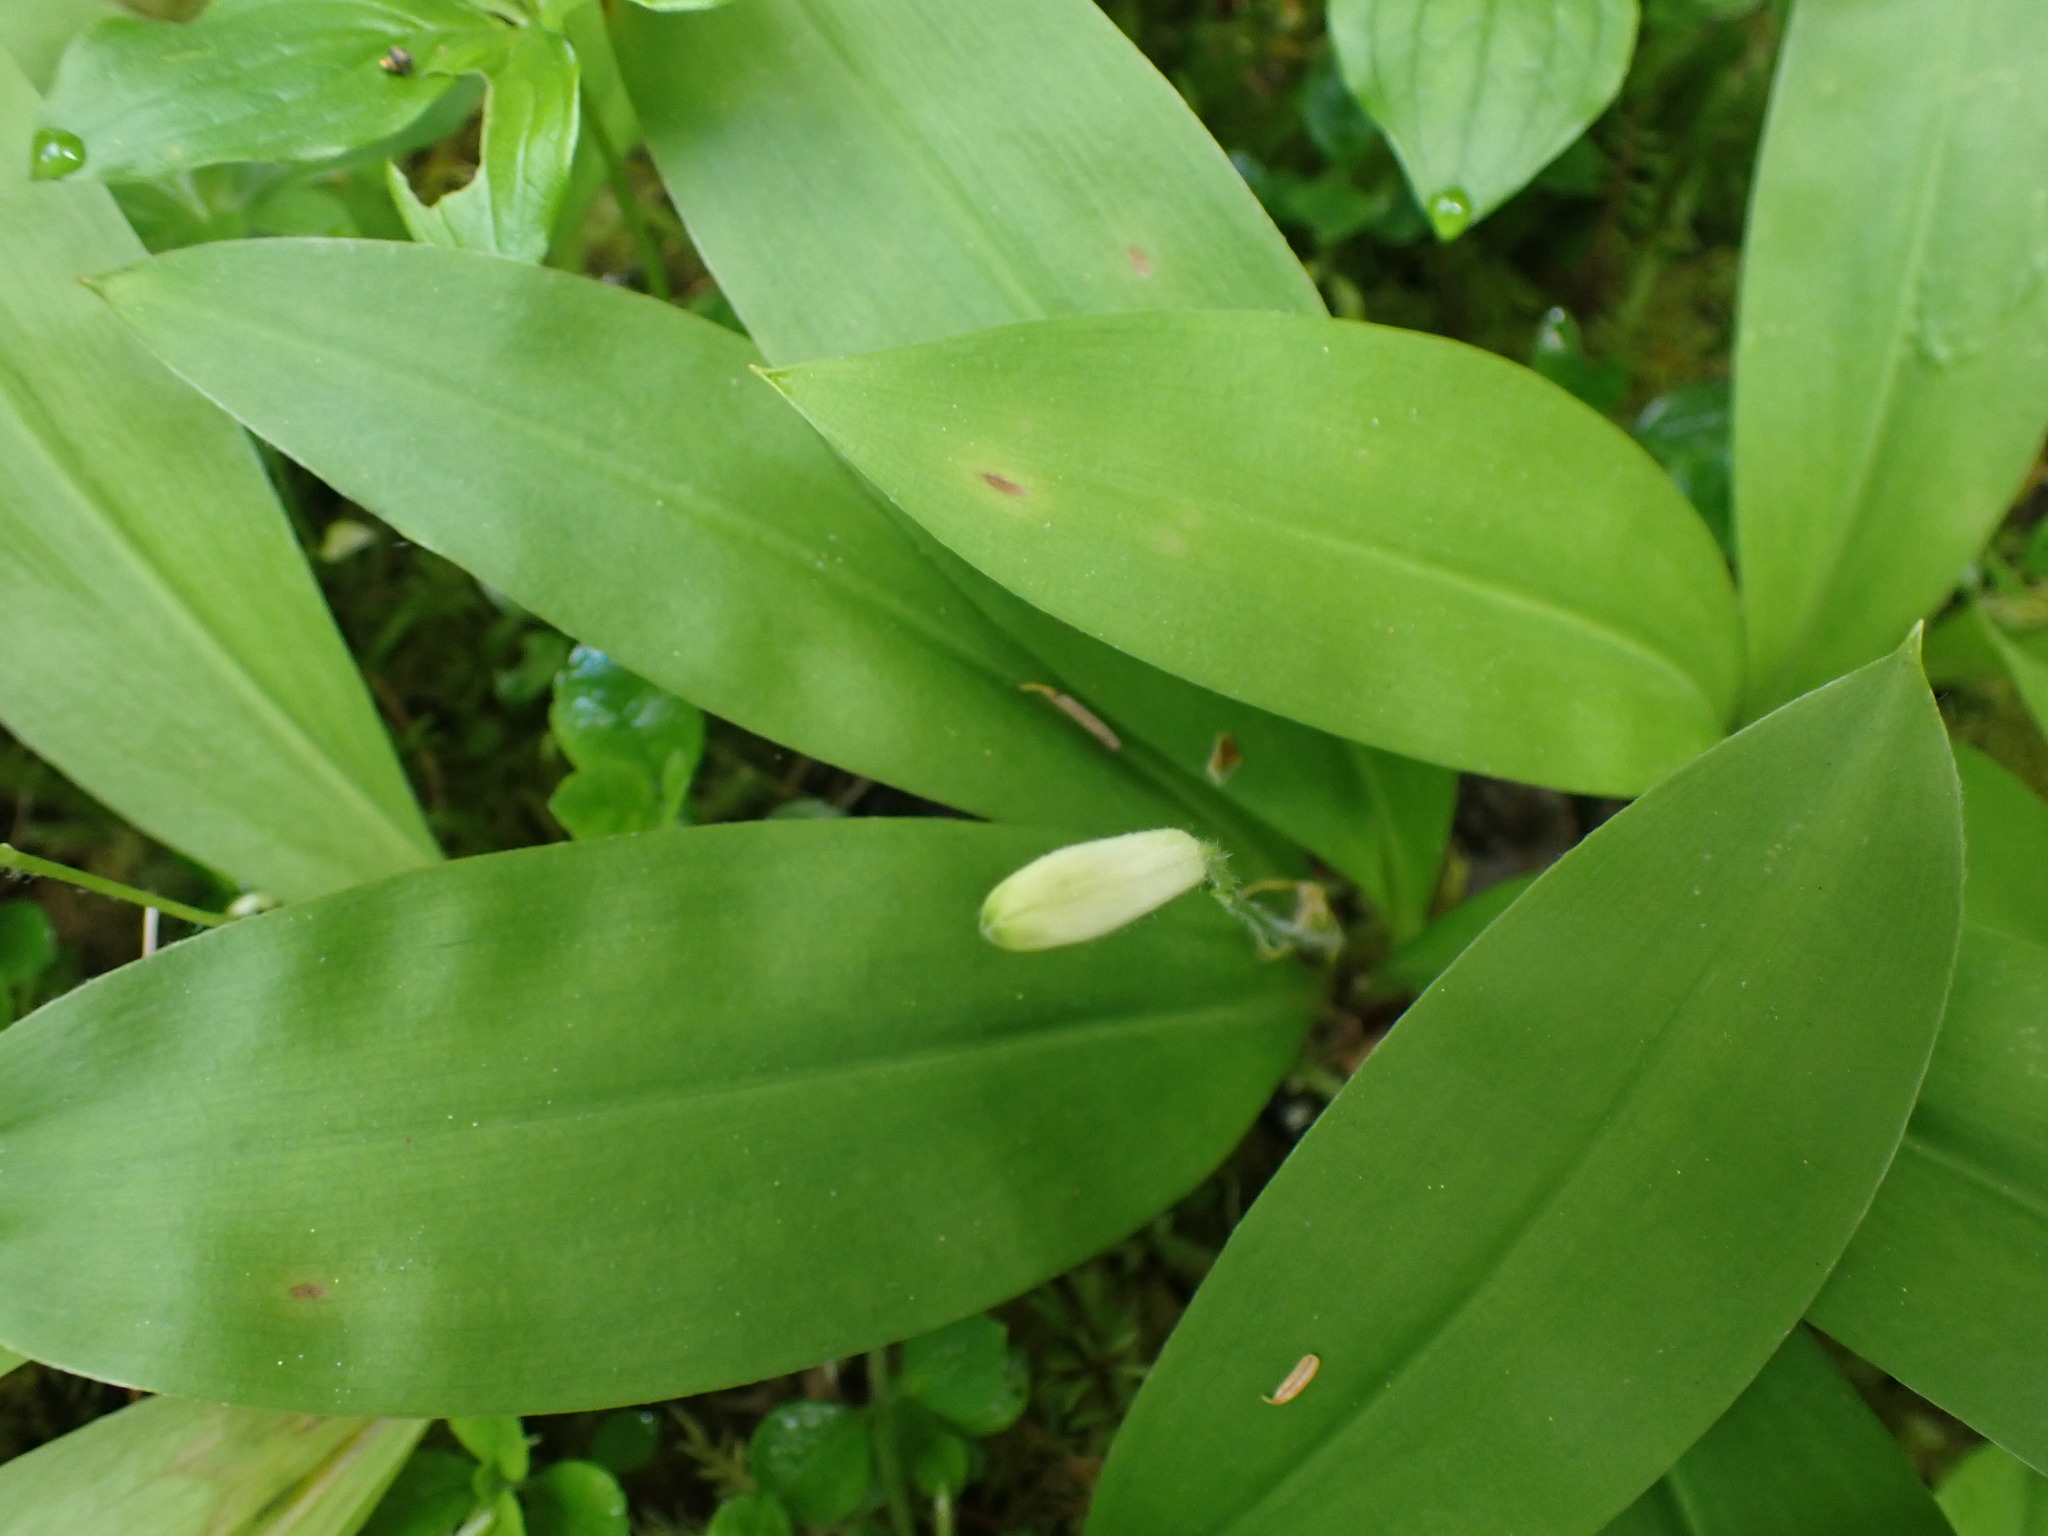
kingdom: Plantae
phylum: Tracheophyta
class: Liliopsida
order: Liliales
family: Liliaceae
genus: Clintonia
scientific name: Clintonia uniflora
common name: Queen's cup
